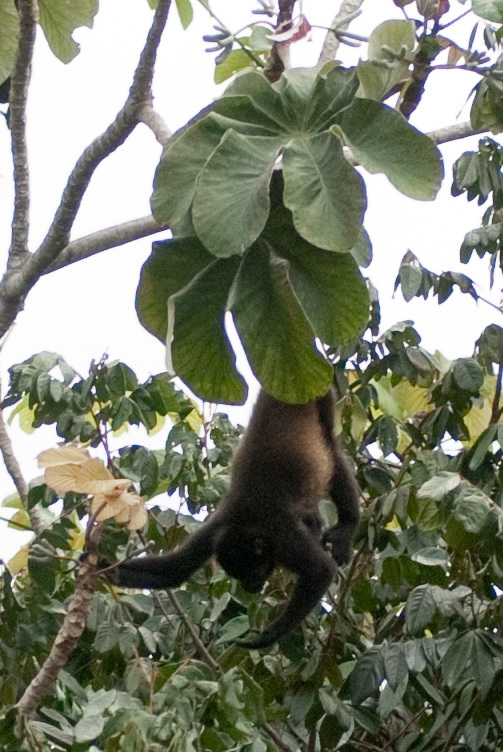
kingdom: Animalia
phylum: Chordata
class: Mammalia
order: Primates
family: Atelidae
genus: Alouatta
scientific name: Alouatta palliata
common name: Mantled howler
